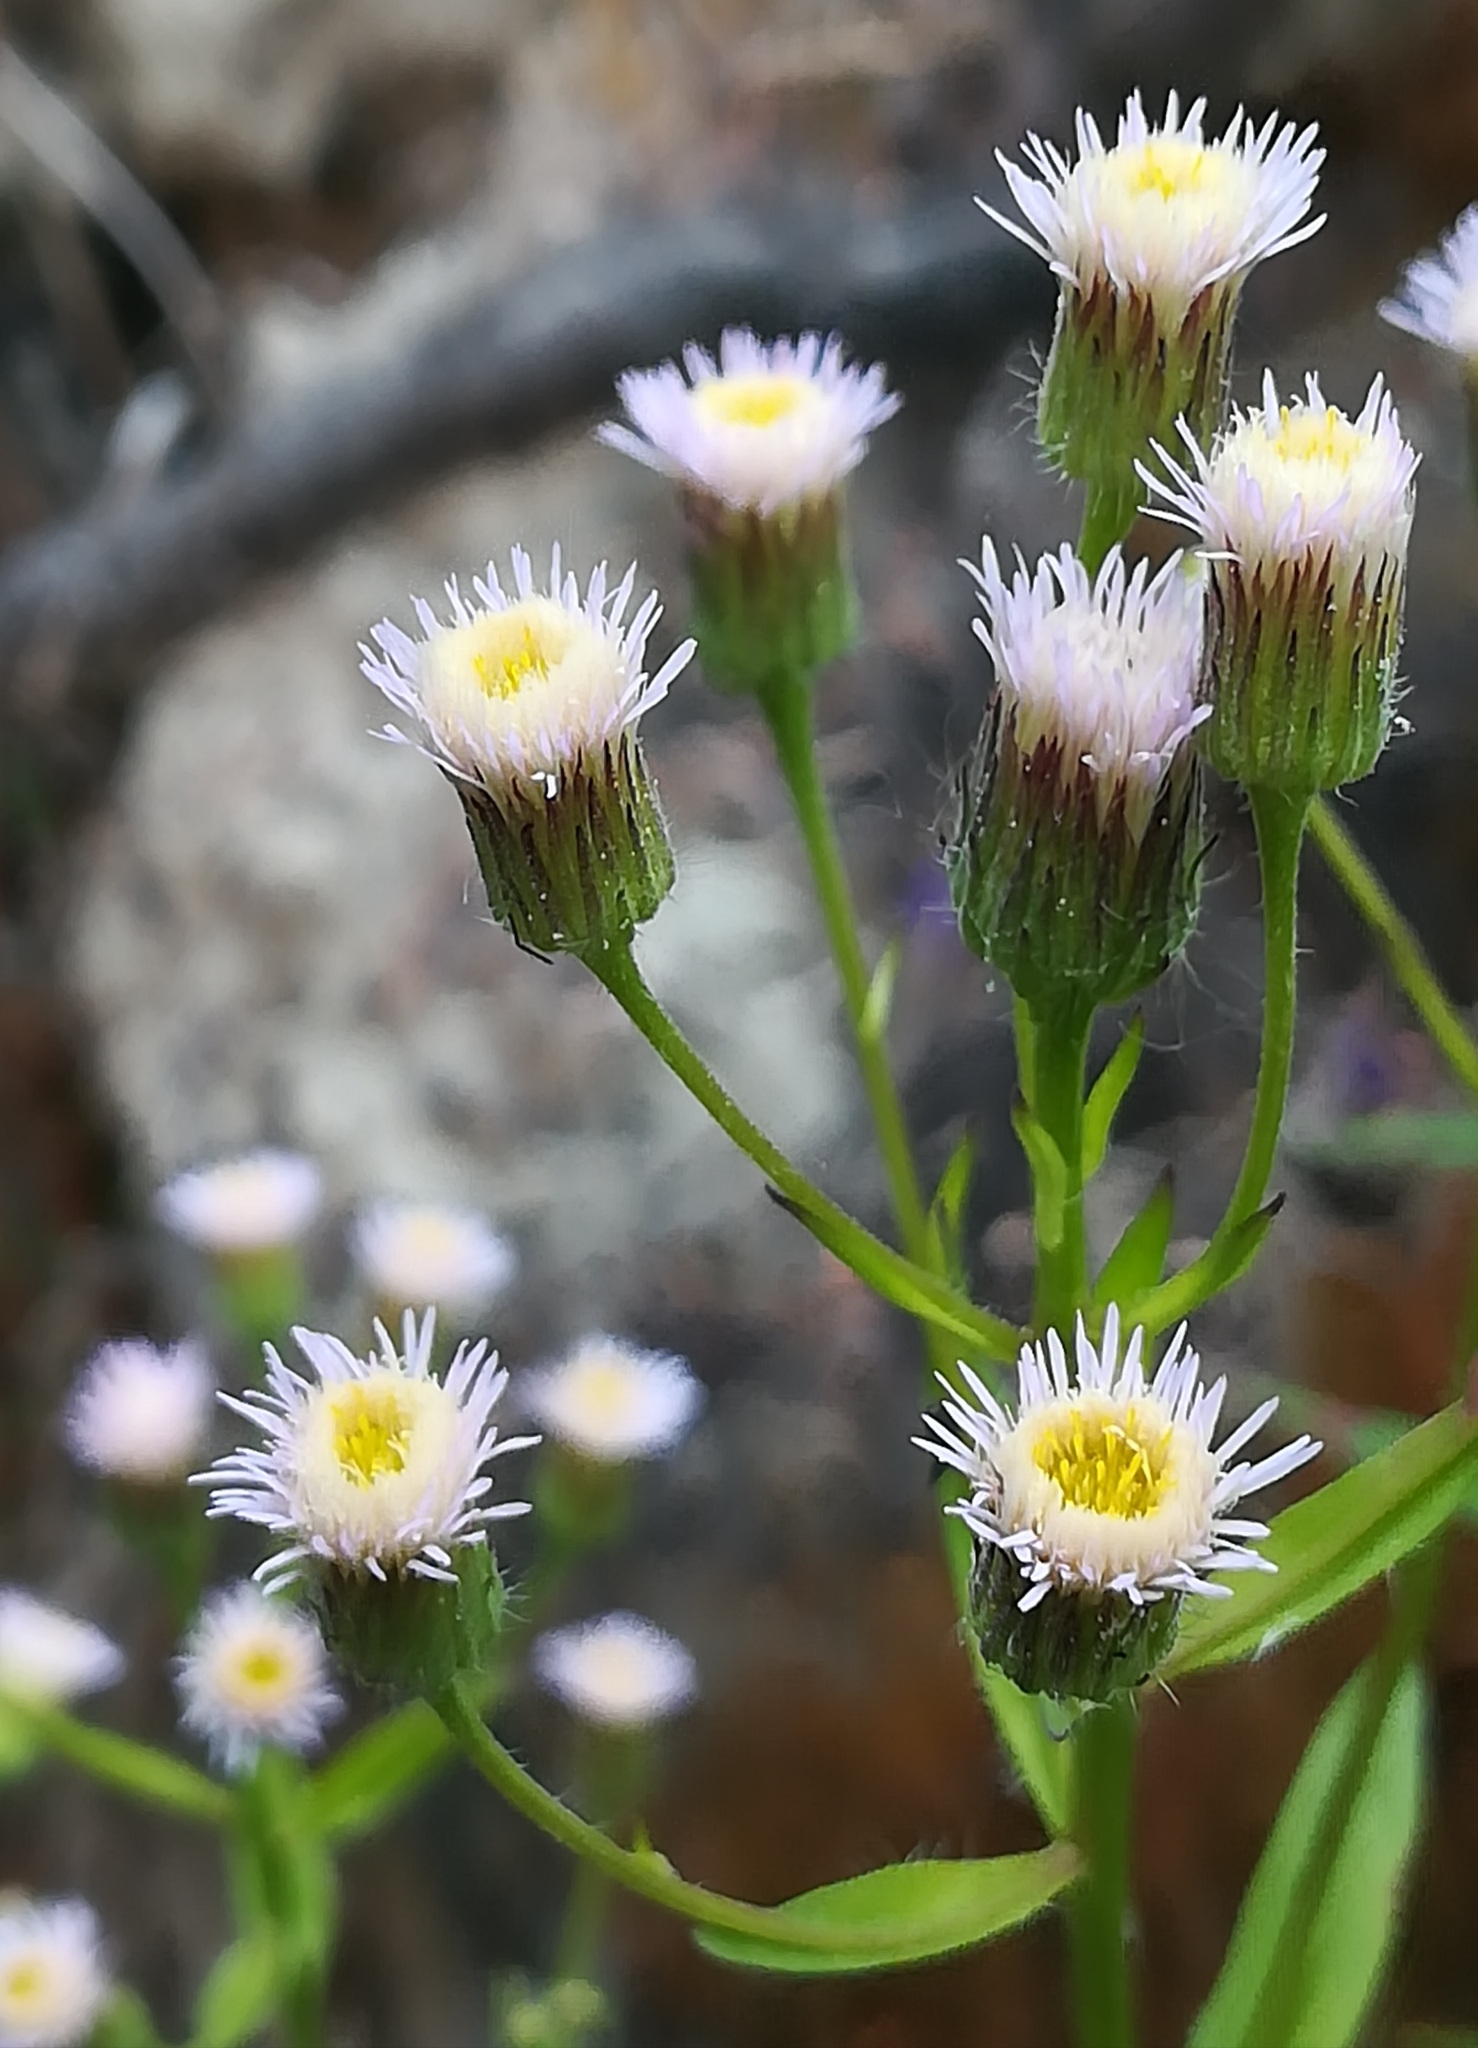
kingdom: Plantae
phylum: Tracheophyta
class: Magnoliopsida
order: Asterales
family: Asteraceae
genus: Erigeron
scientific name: Erigeron acris
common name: Blue fleabane
